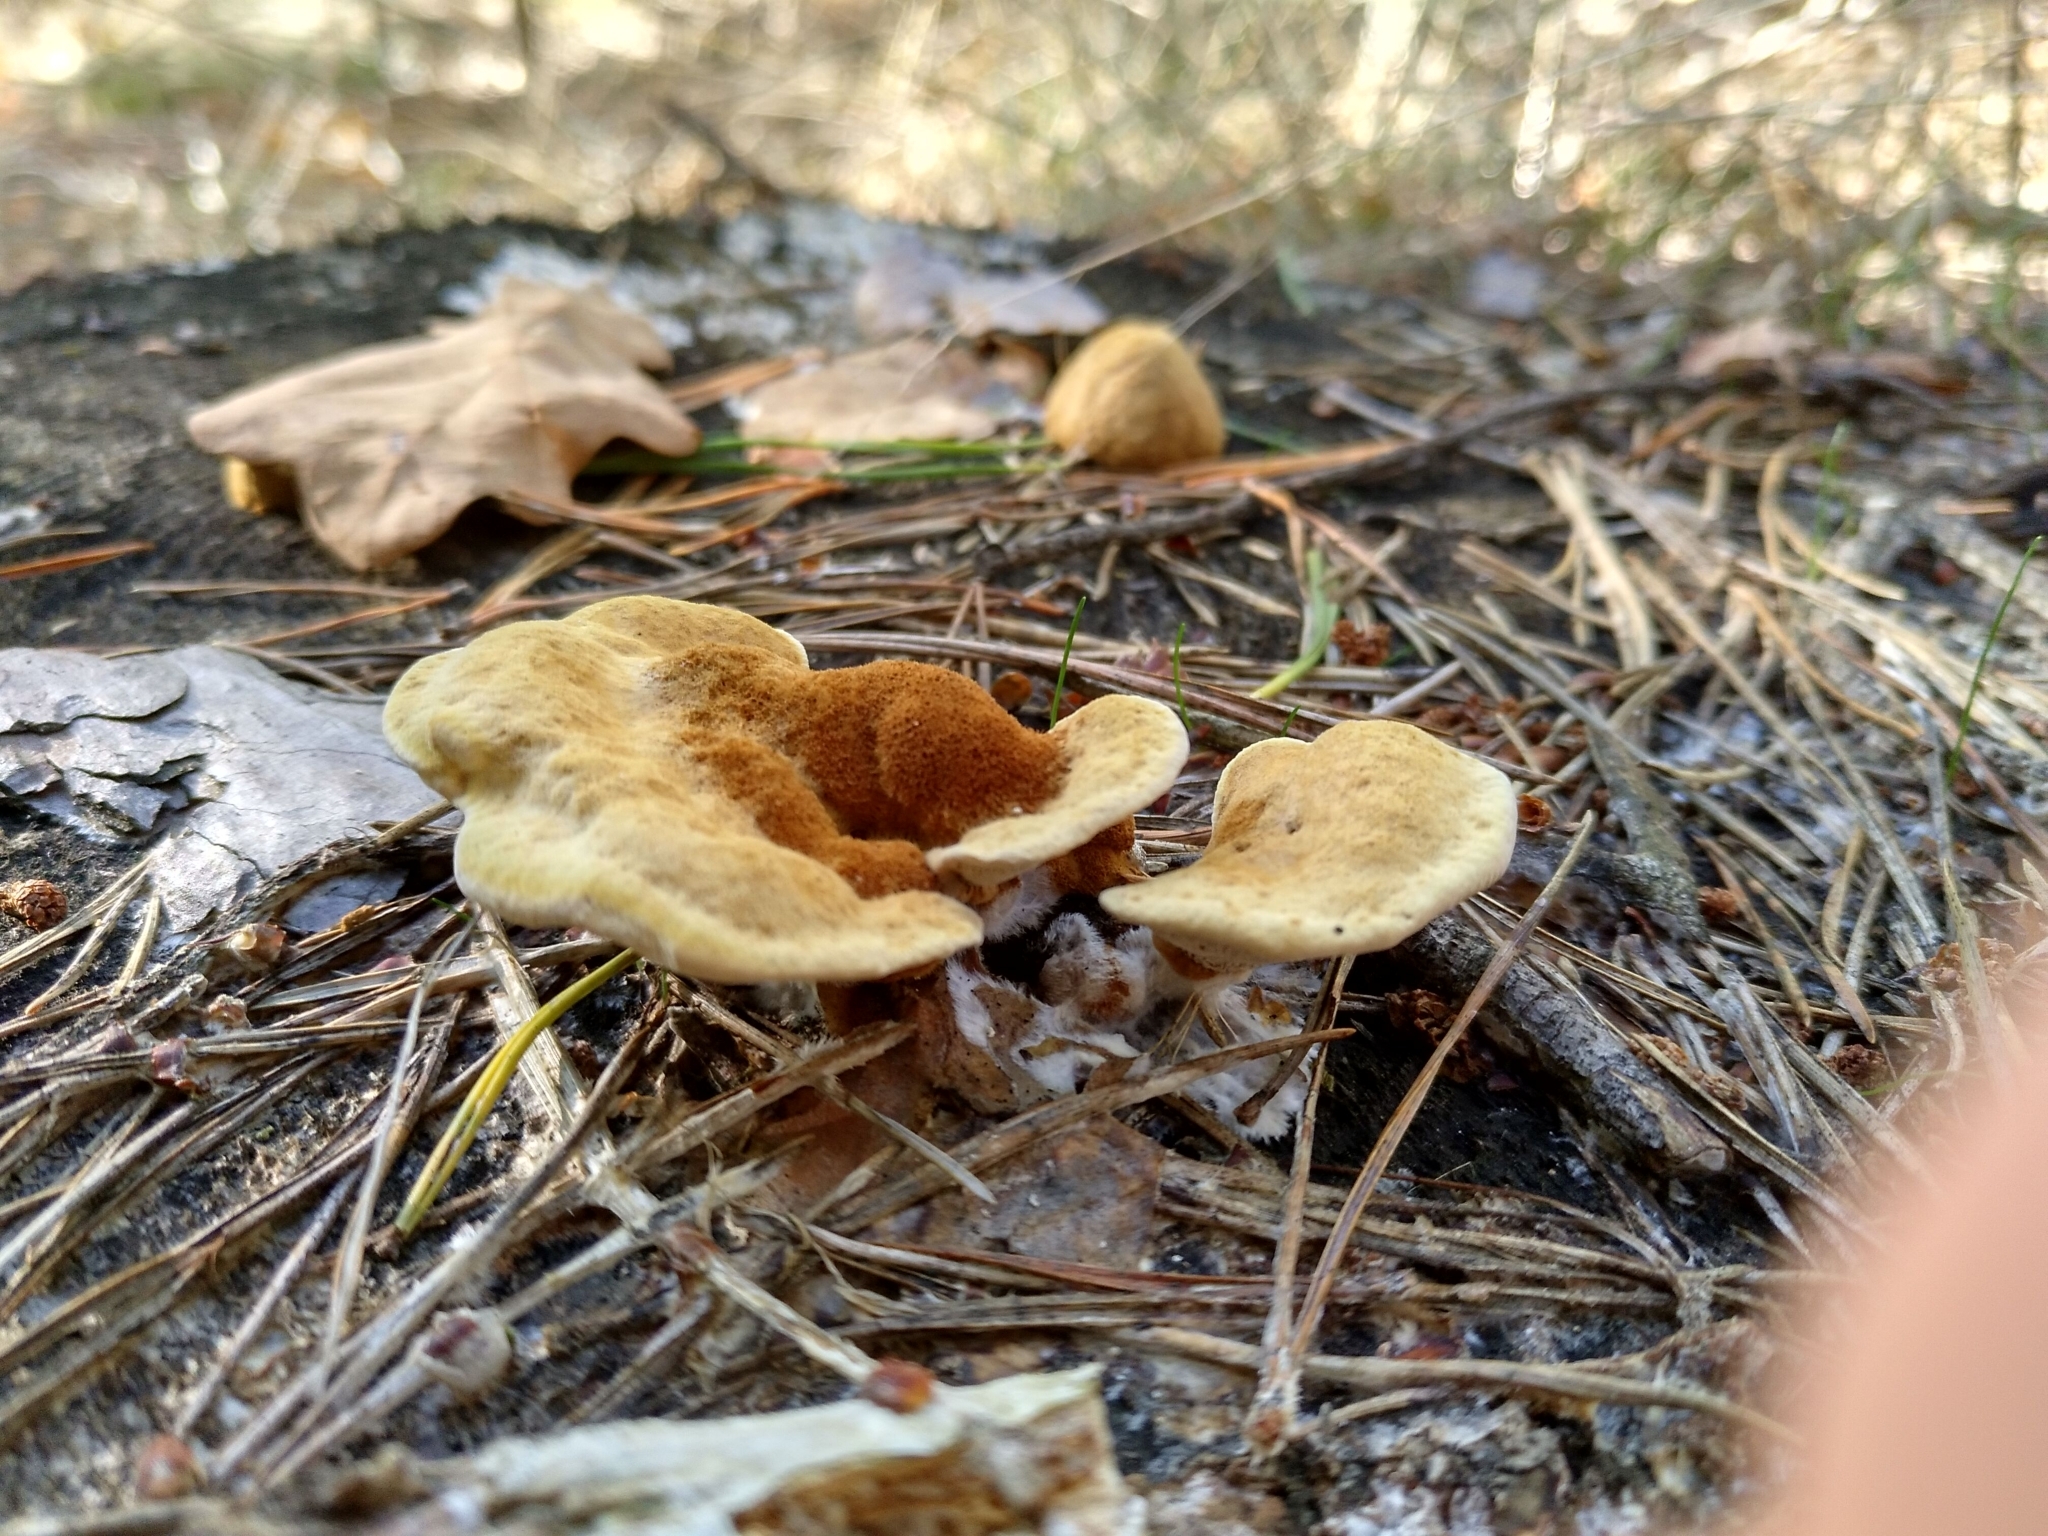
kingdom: Fungi
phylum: Basidiomycota
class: Agaricomycetes
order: Polyporales
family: Laetiporaceae
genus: Phaeolus
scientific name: Phaeolus schweinitzii
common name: Dyer's mazegill
